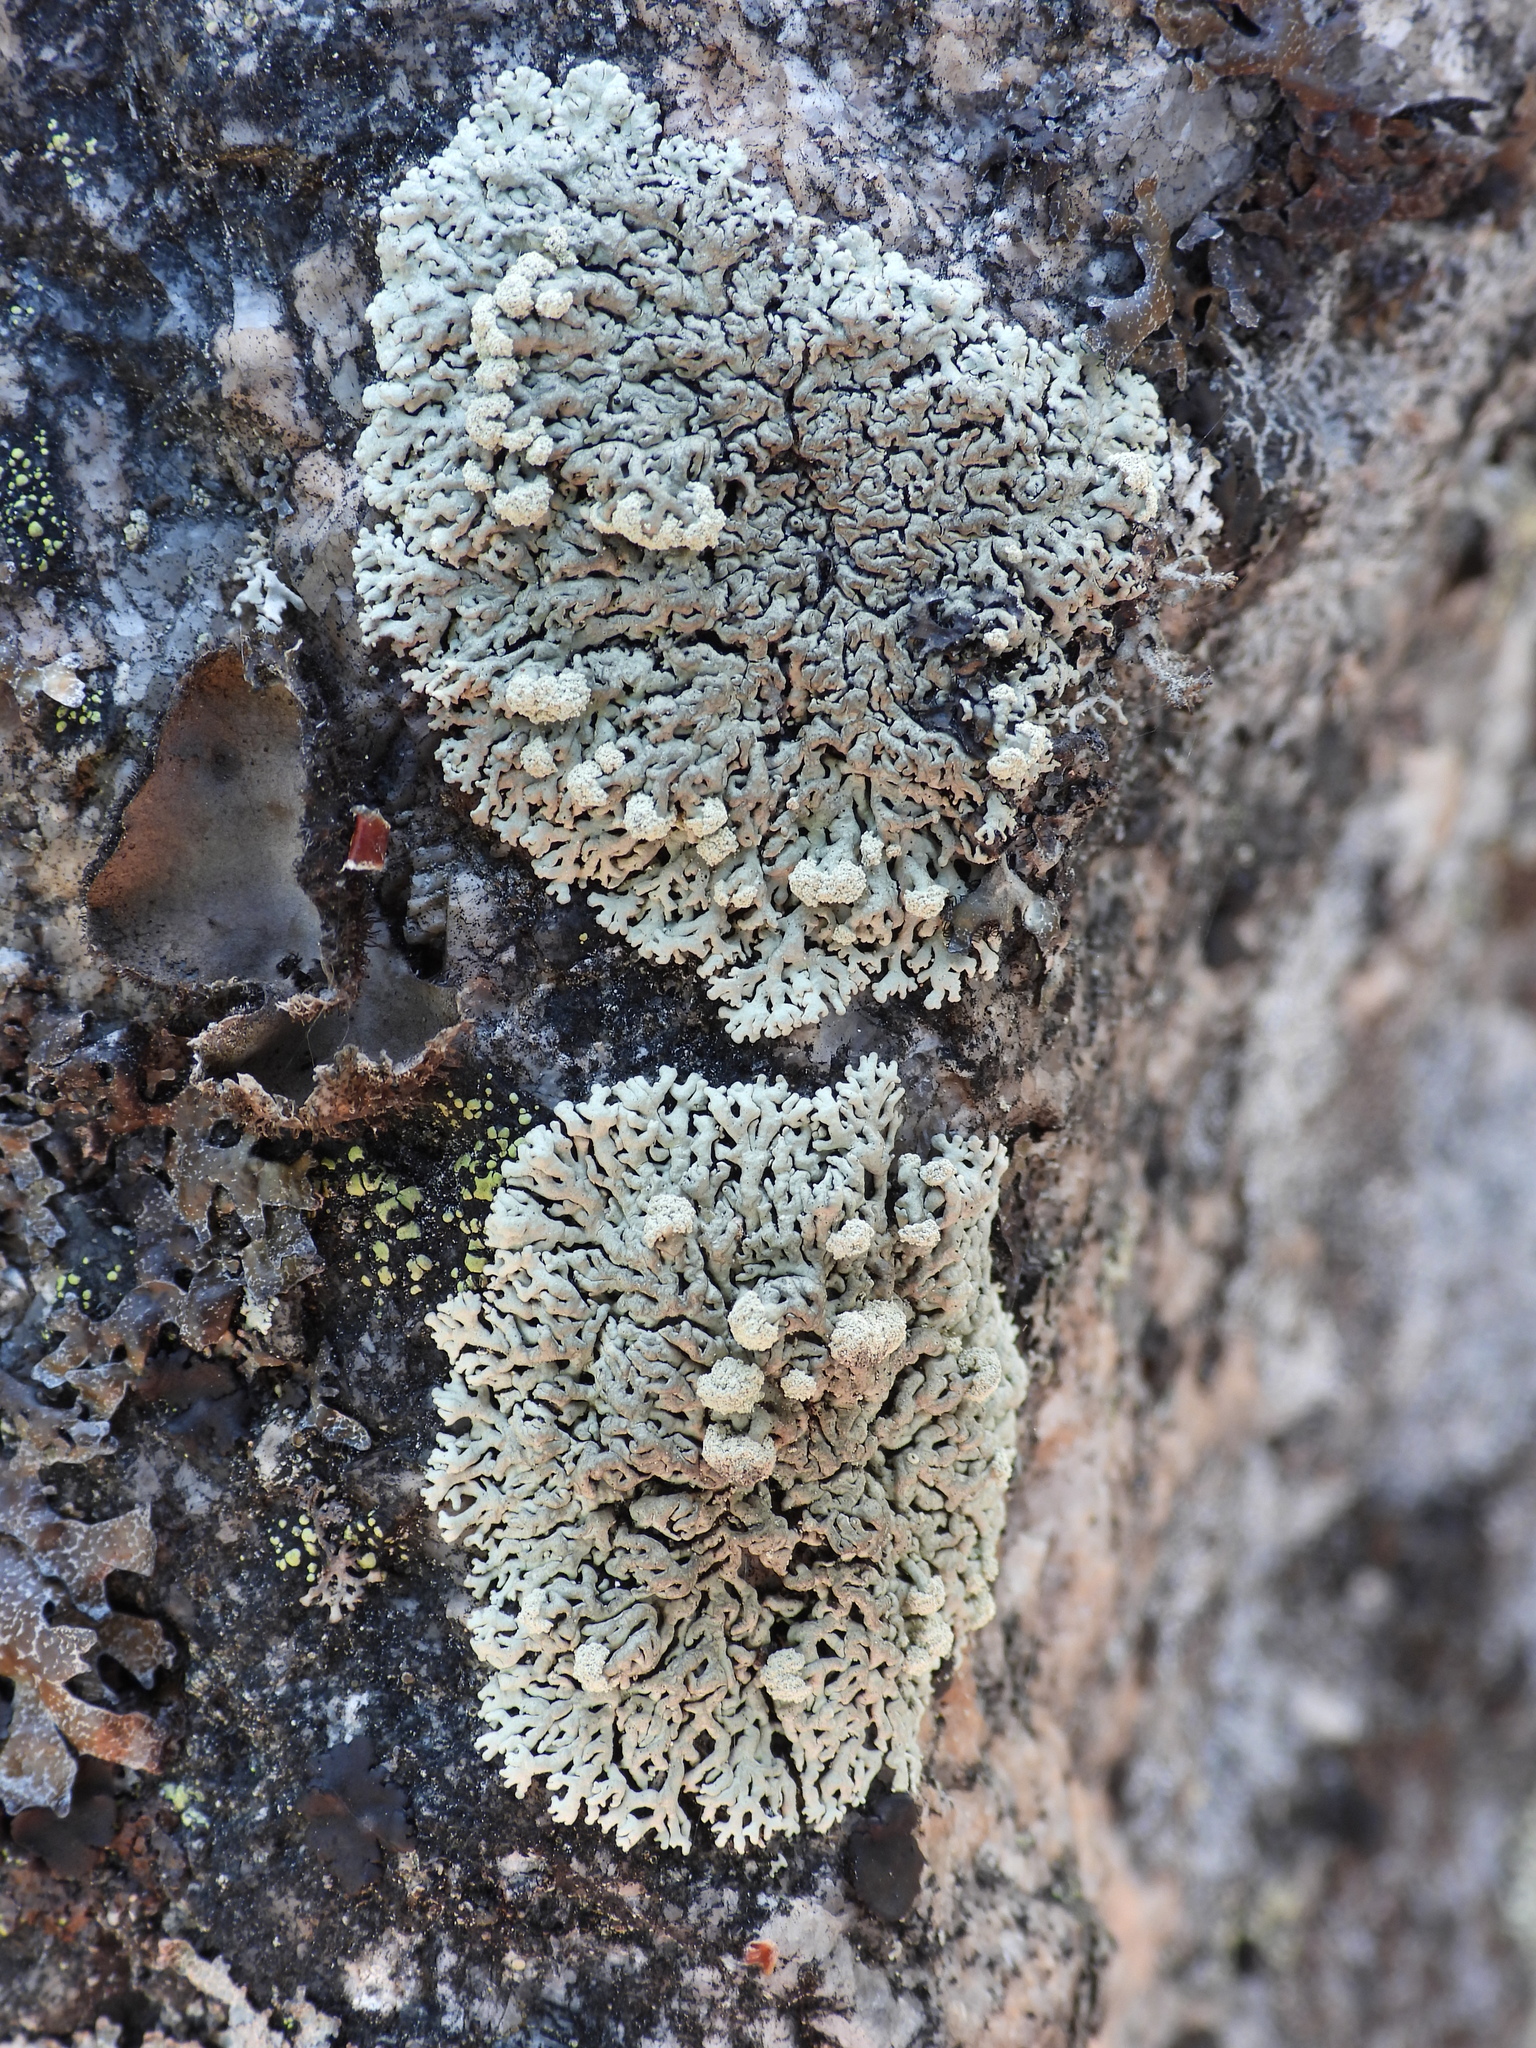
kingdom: Fungi
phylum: Ascomycota
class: Lecanoromycetes
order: Lecanorales
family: Parmeliaceae
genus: Arctoparmelia
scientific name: Arctoparmelia incurva
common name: Bent ring lichen
